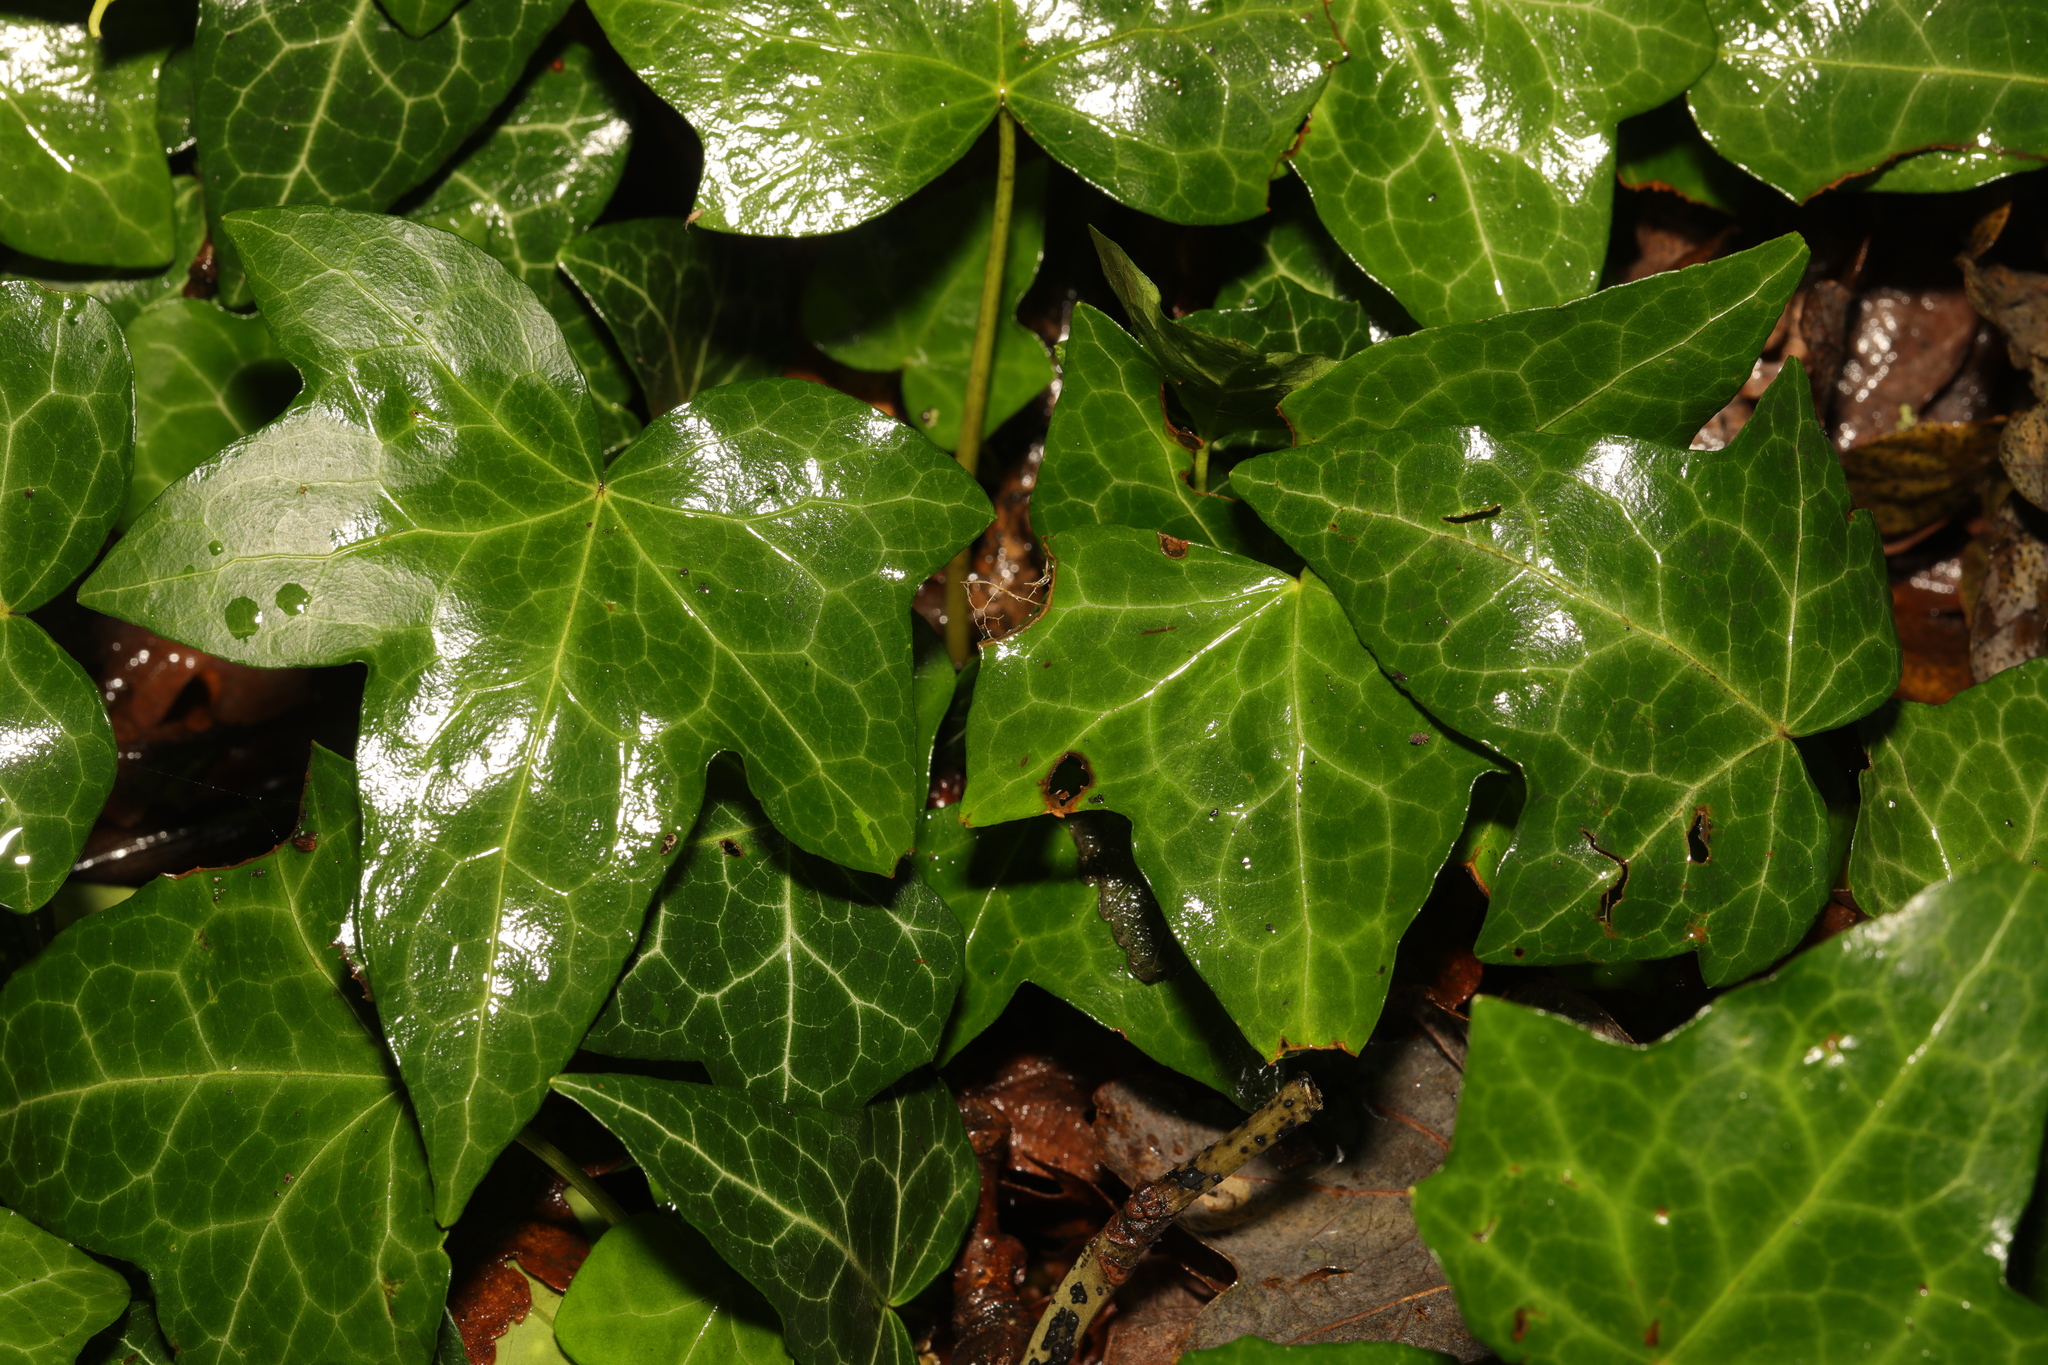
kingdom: Plantae
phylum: Tracheophyta
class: Magnoliopsida
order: Apiales
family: Araliaceae
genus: Hedera
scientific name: Hedera helix
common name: Ivy
